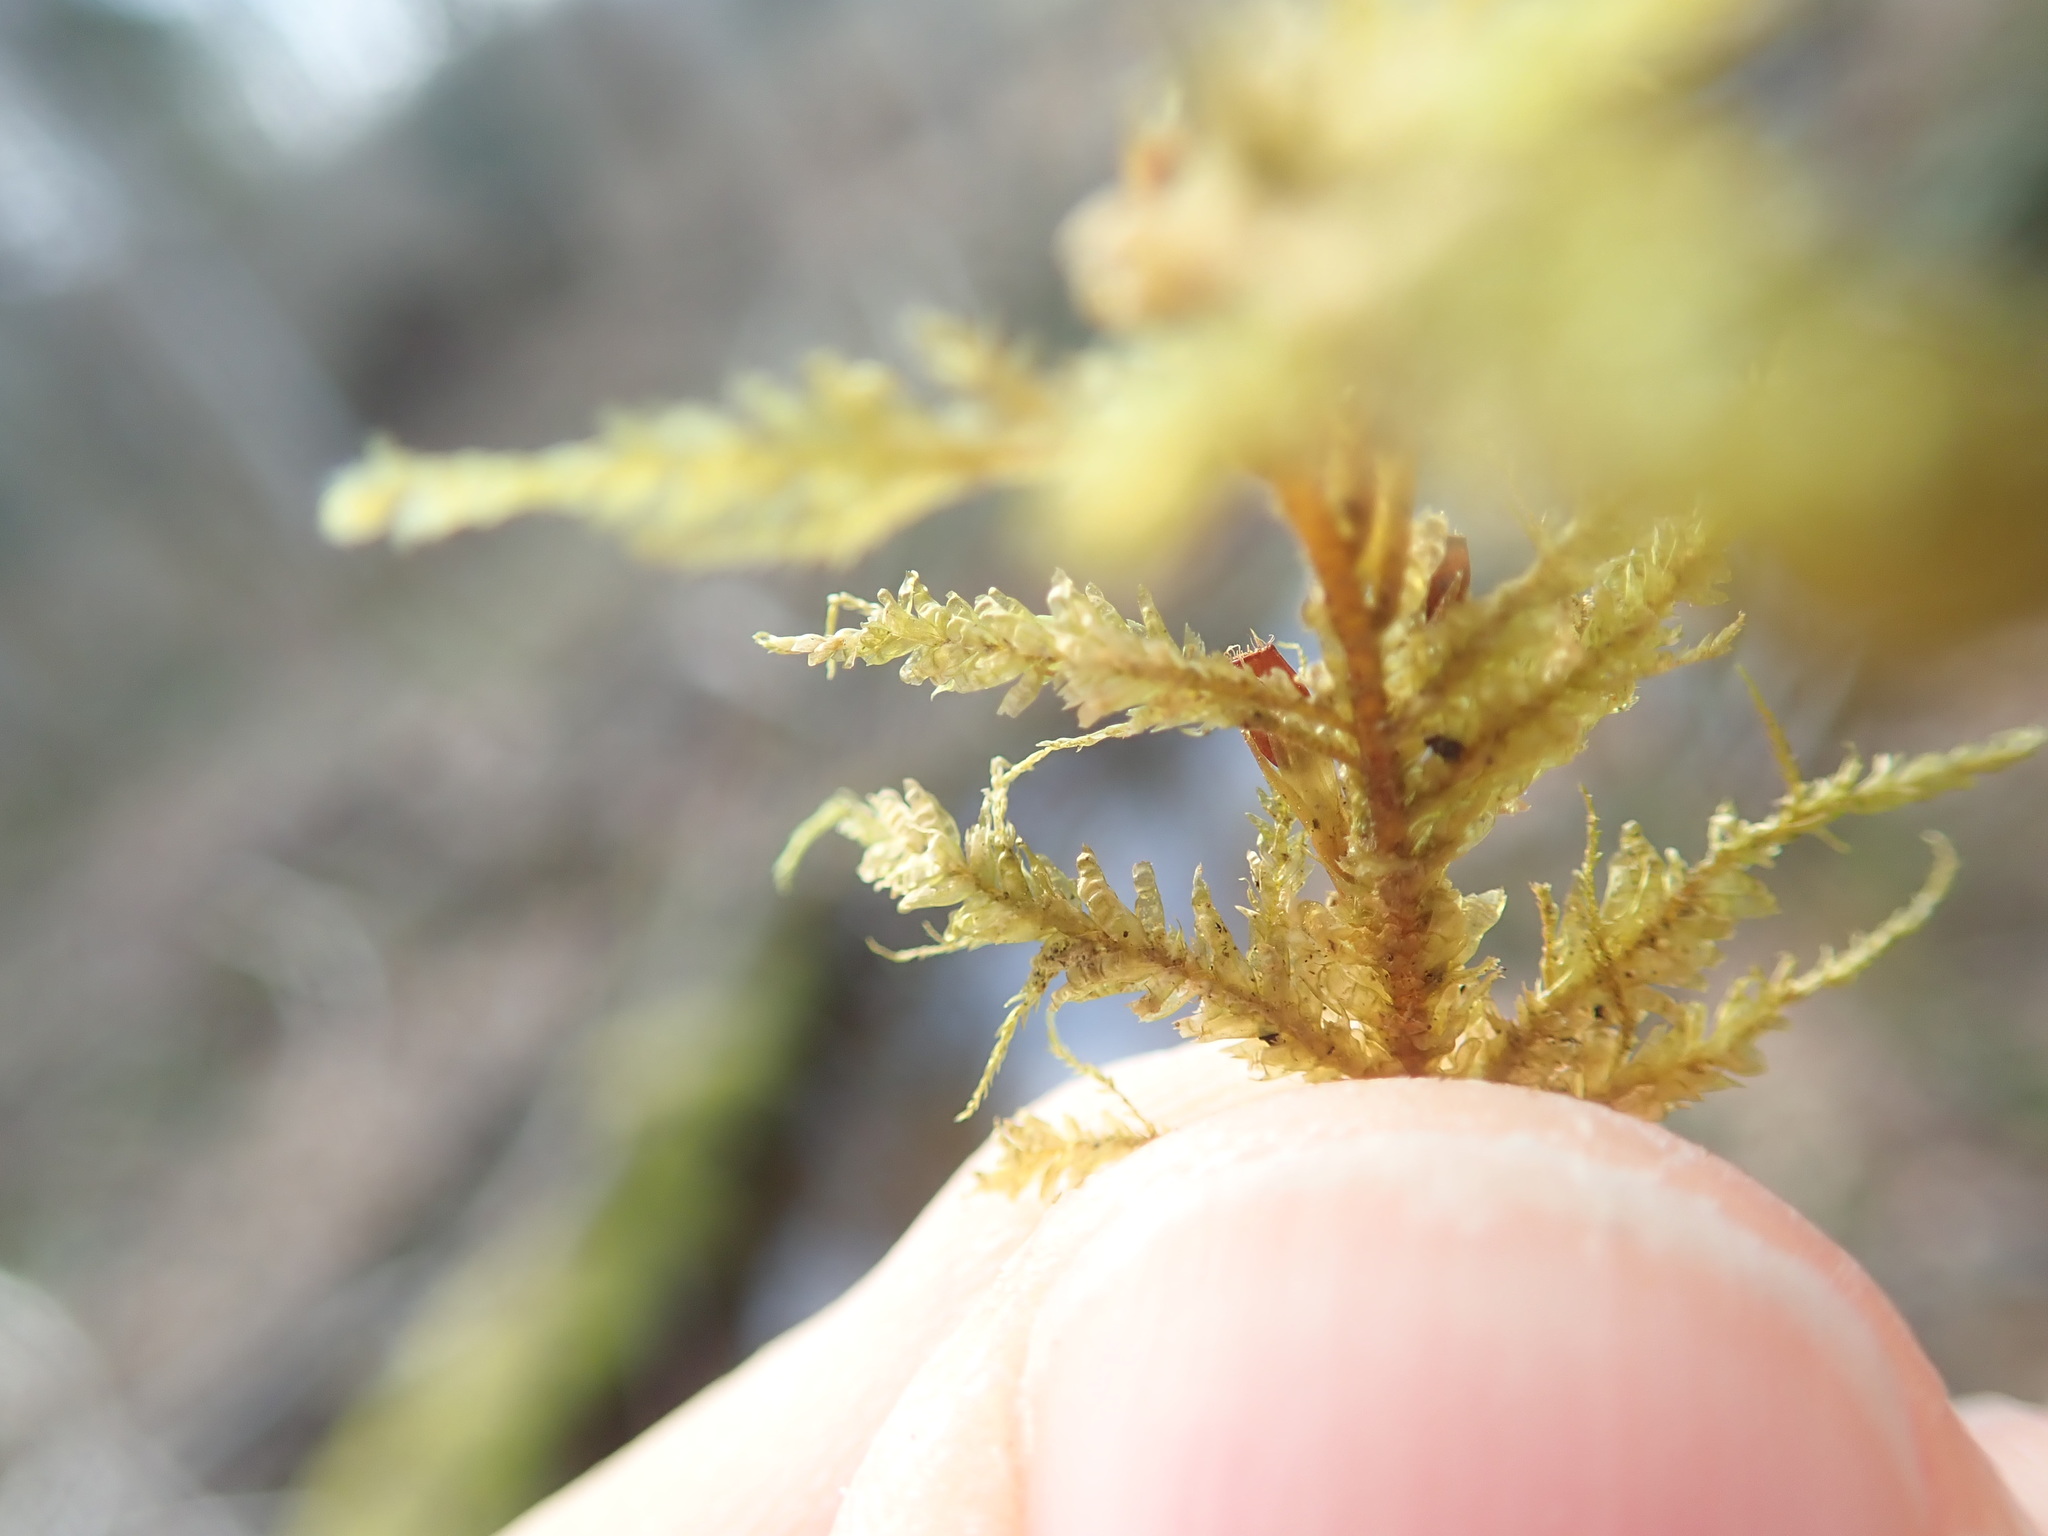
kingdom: Plantae
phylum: Bryophyta
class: Bryopsida
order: Hypnales
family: Neckeraceae
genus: Metaneckera
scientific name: Metaneckera menziesii
